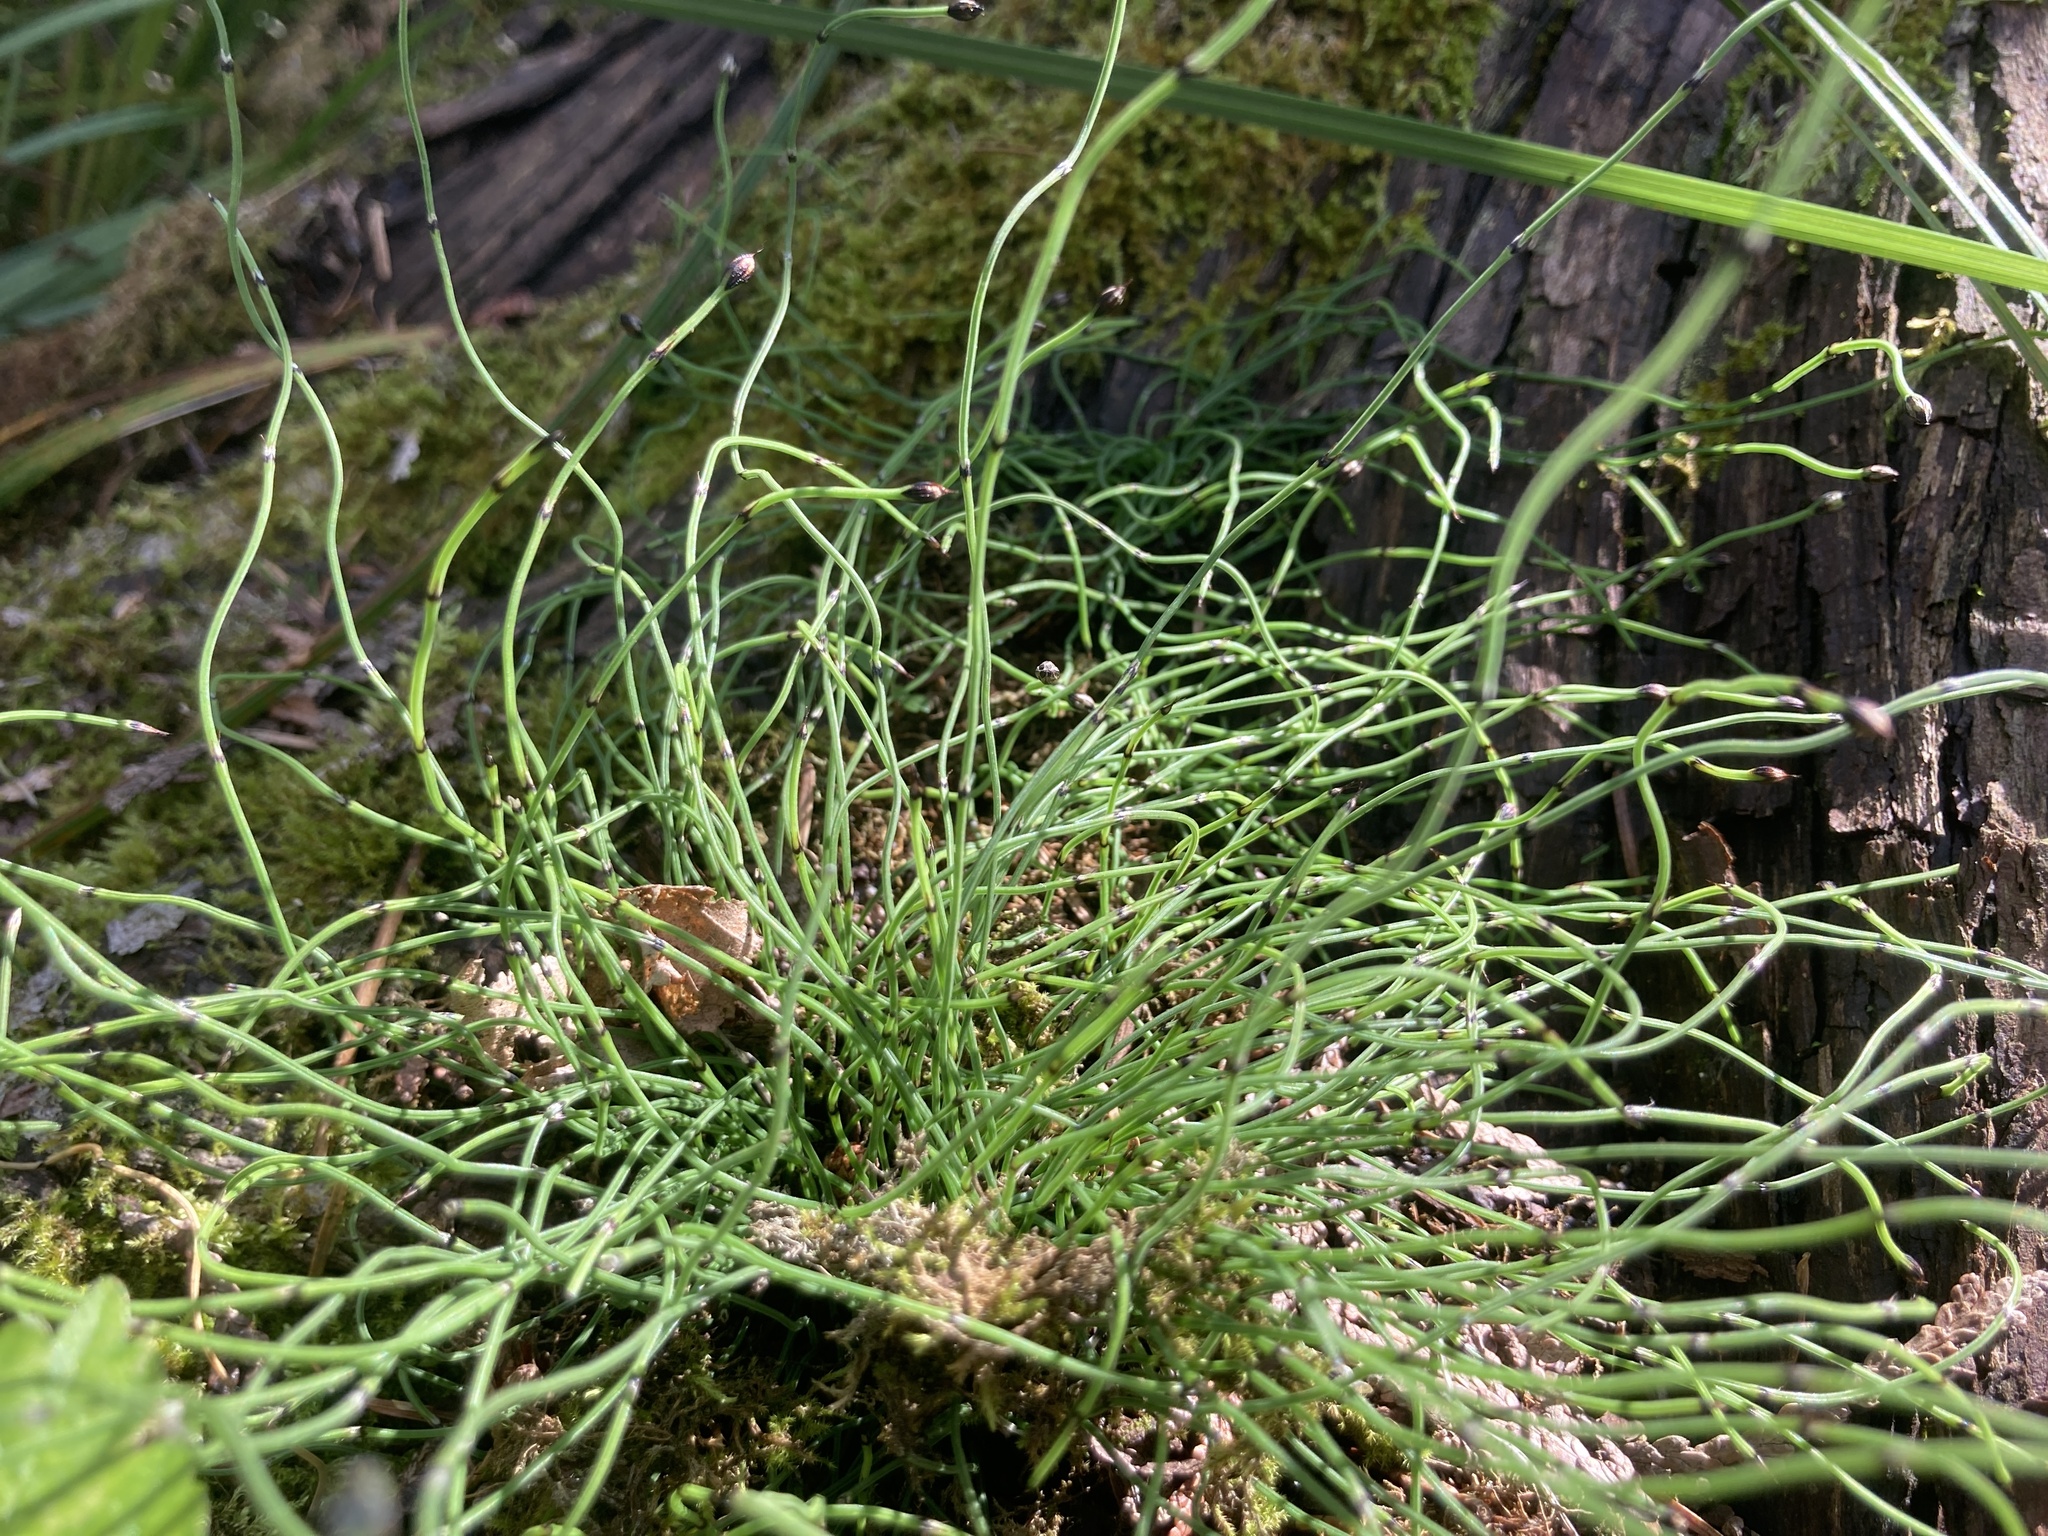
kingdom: Plantae
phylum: Tracheophyta
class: Polypodiopsida
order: Equisetales
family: Equisetaceae
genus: Equisetum
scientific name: Equisetum scirpoides
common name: Delicate horsetail
